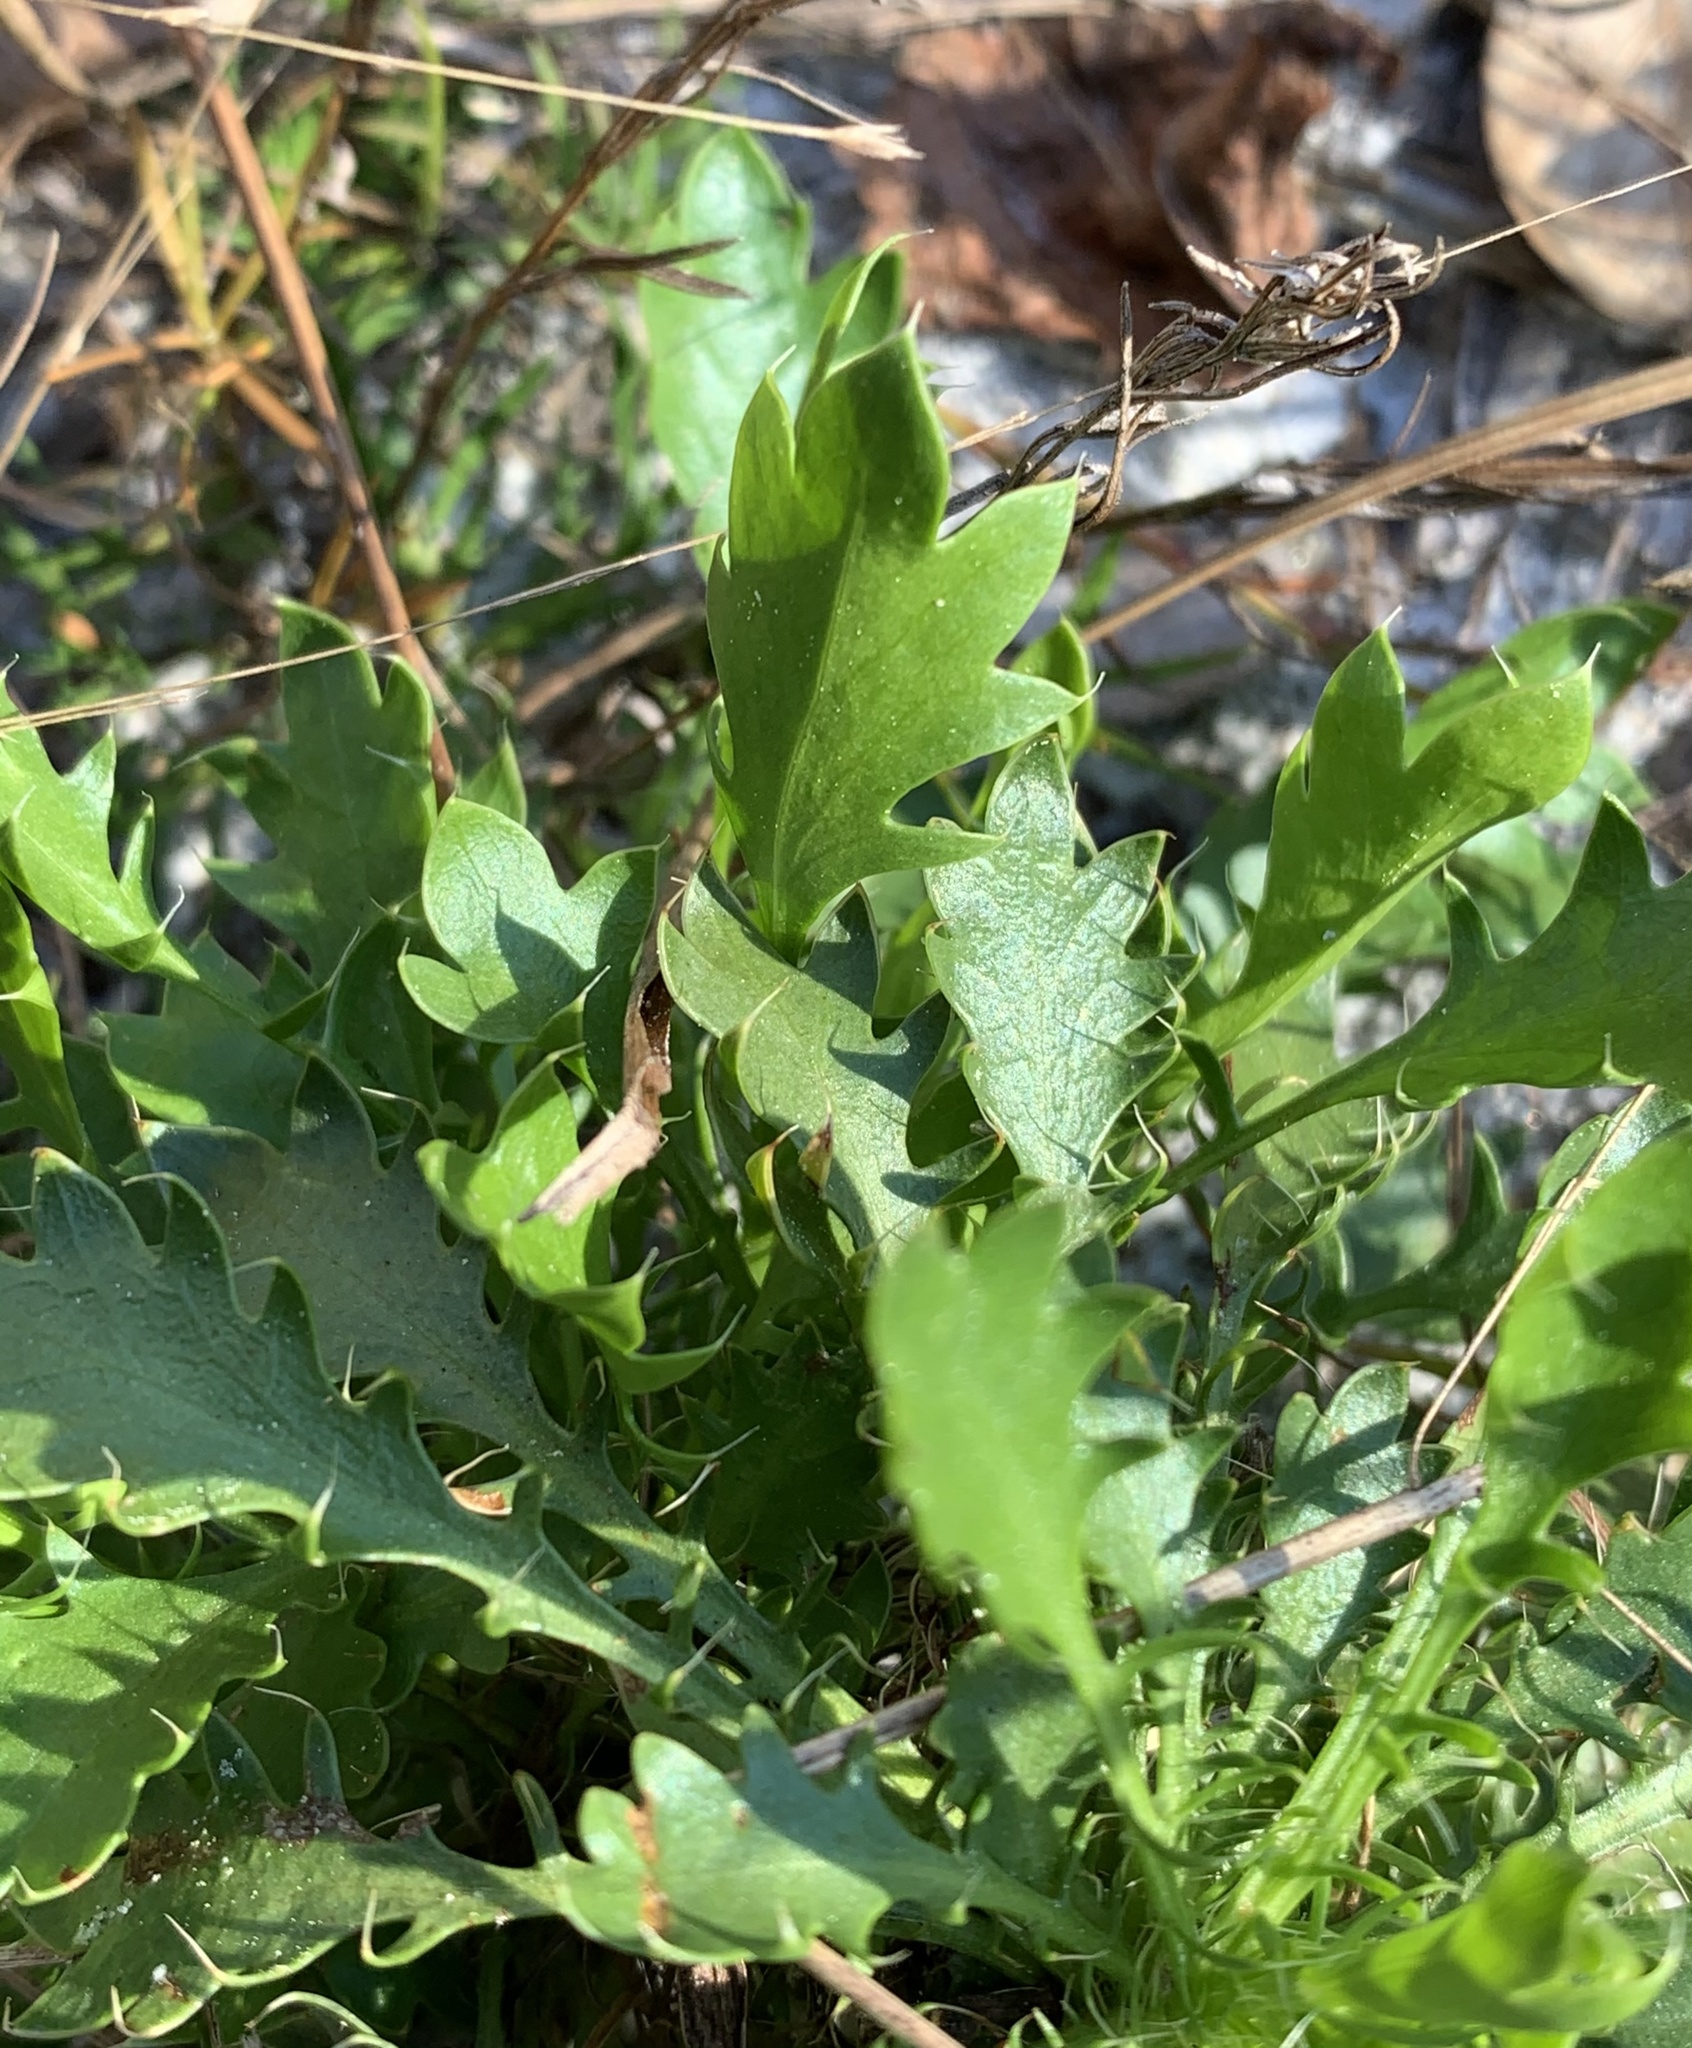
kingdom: Plantae
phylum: Tracheophyta
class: Magnoliopsida
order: Apiales
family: Apiaceae
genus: Eryngium
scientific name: Eryngium aromaticum
